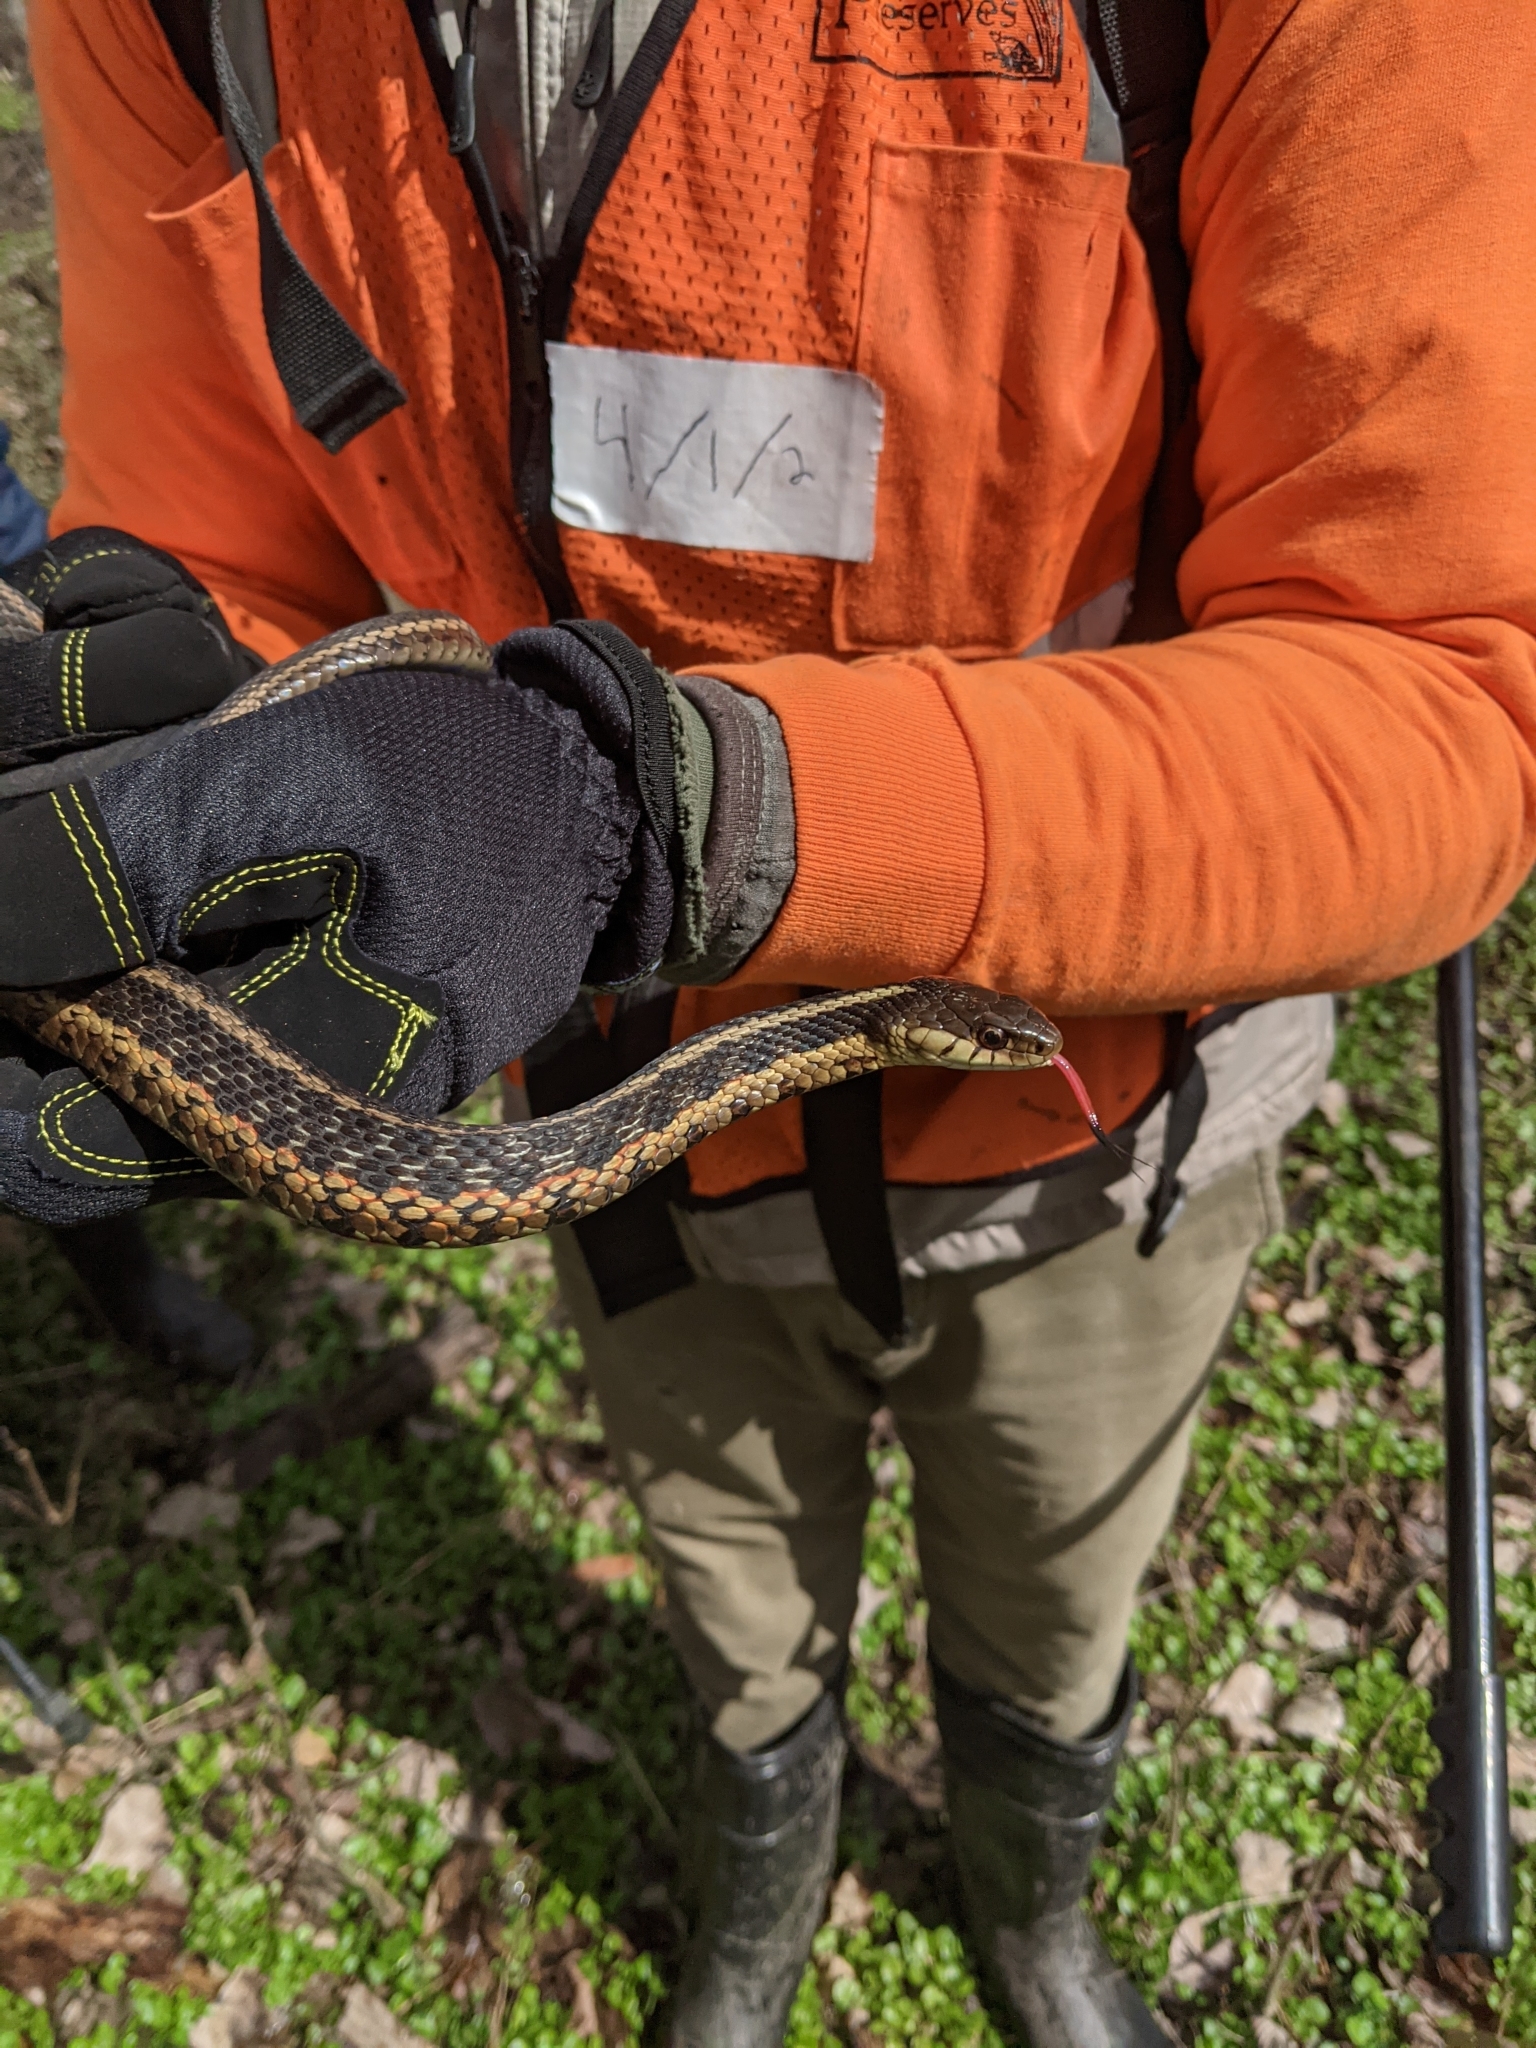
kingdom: Animalia
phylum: Chordata
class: Squamata
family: Colubridae
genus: Thamnophis
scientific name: Thamnophis sirtalis
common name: Common garter snake
